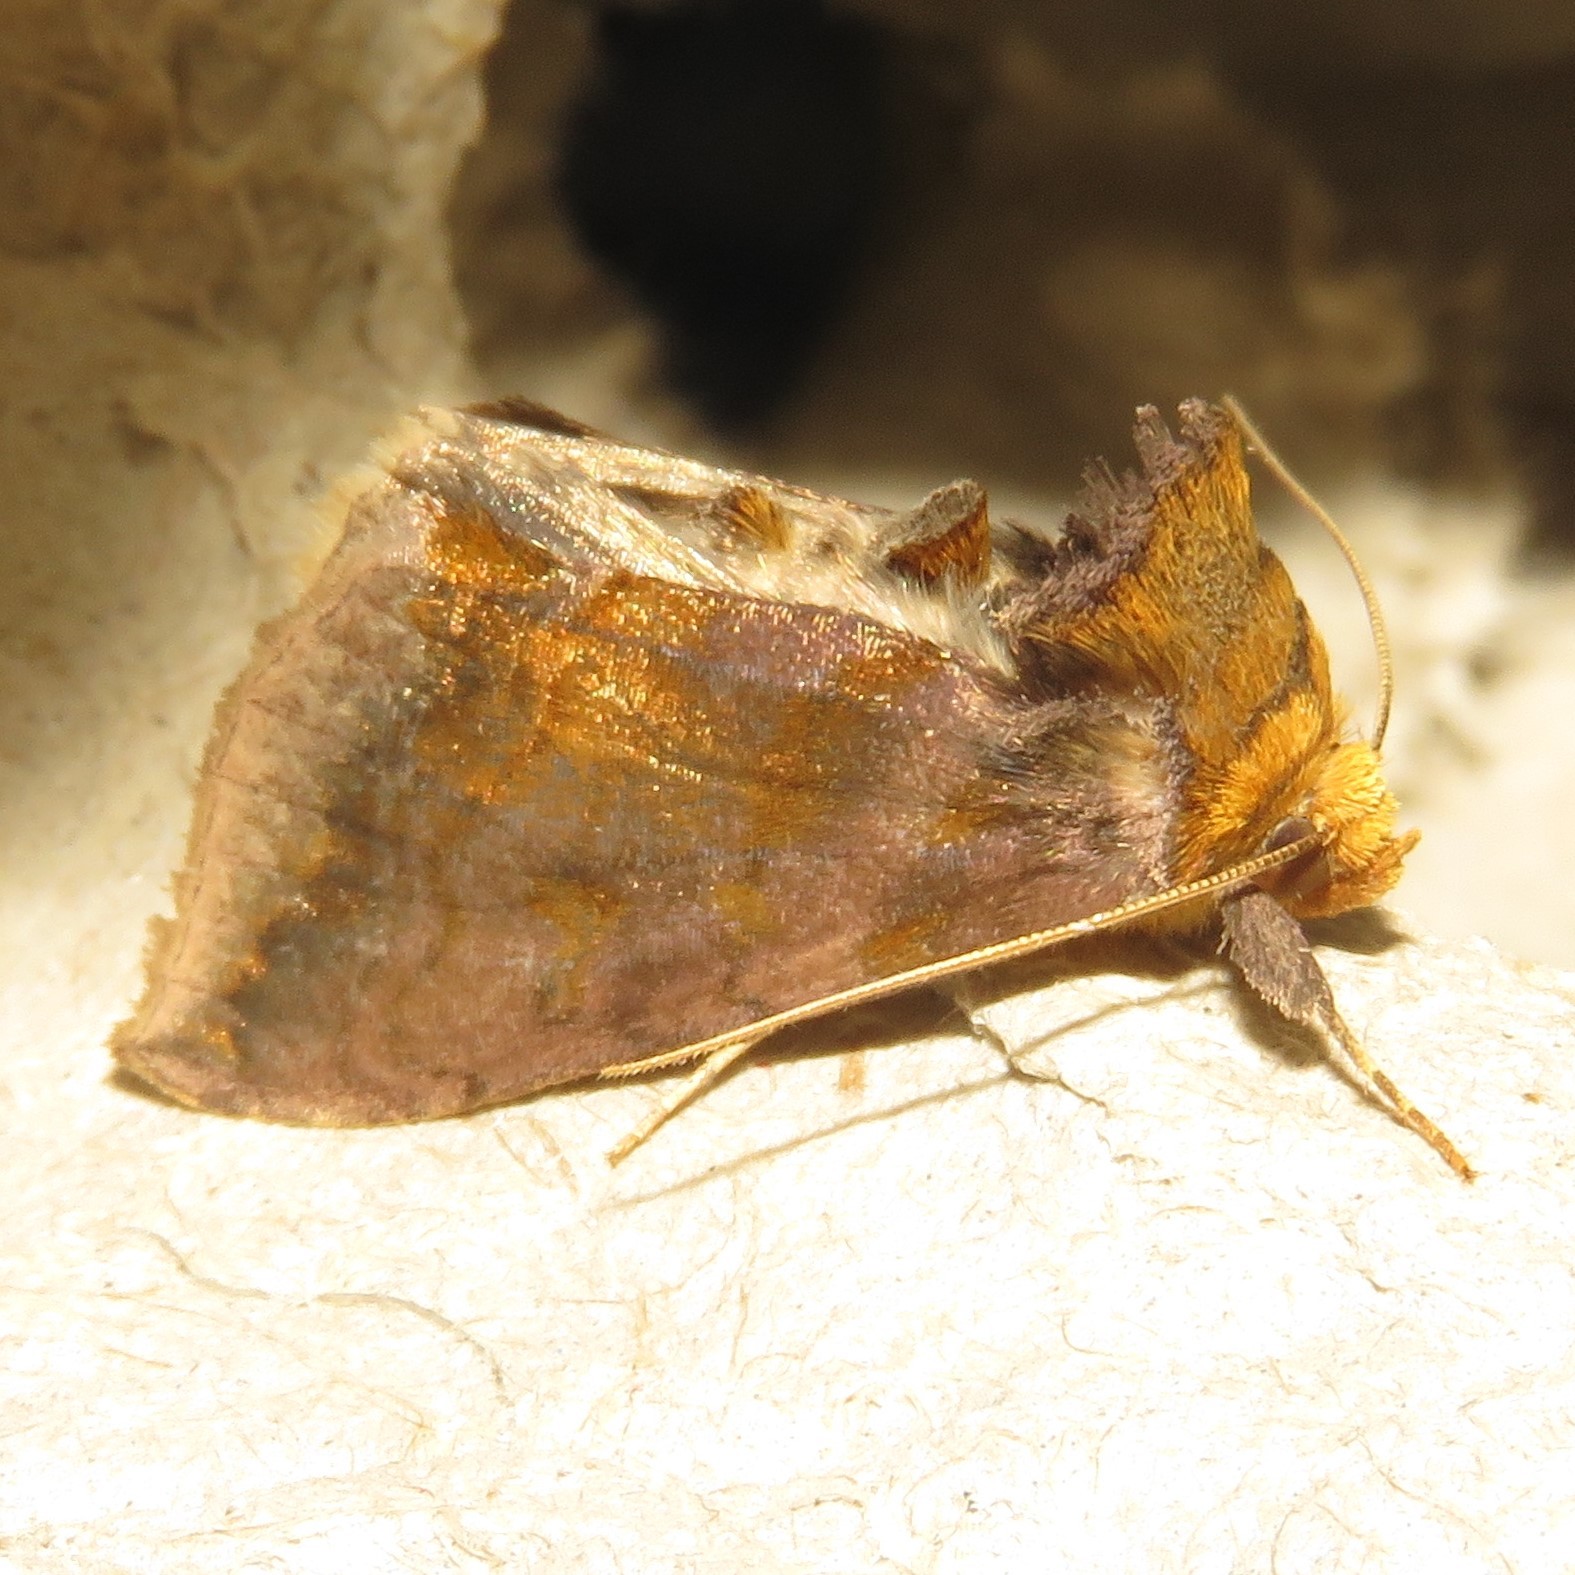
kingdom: Animalia
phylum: Arthropoda
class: Insecta
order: Lepidoptera
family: Noctuidae
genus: Allagrapha
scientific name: Allagrapha aerea
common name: Unspotted looper moth
